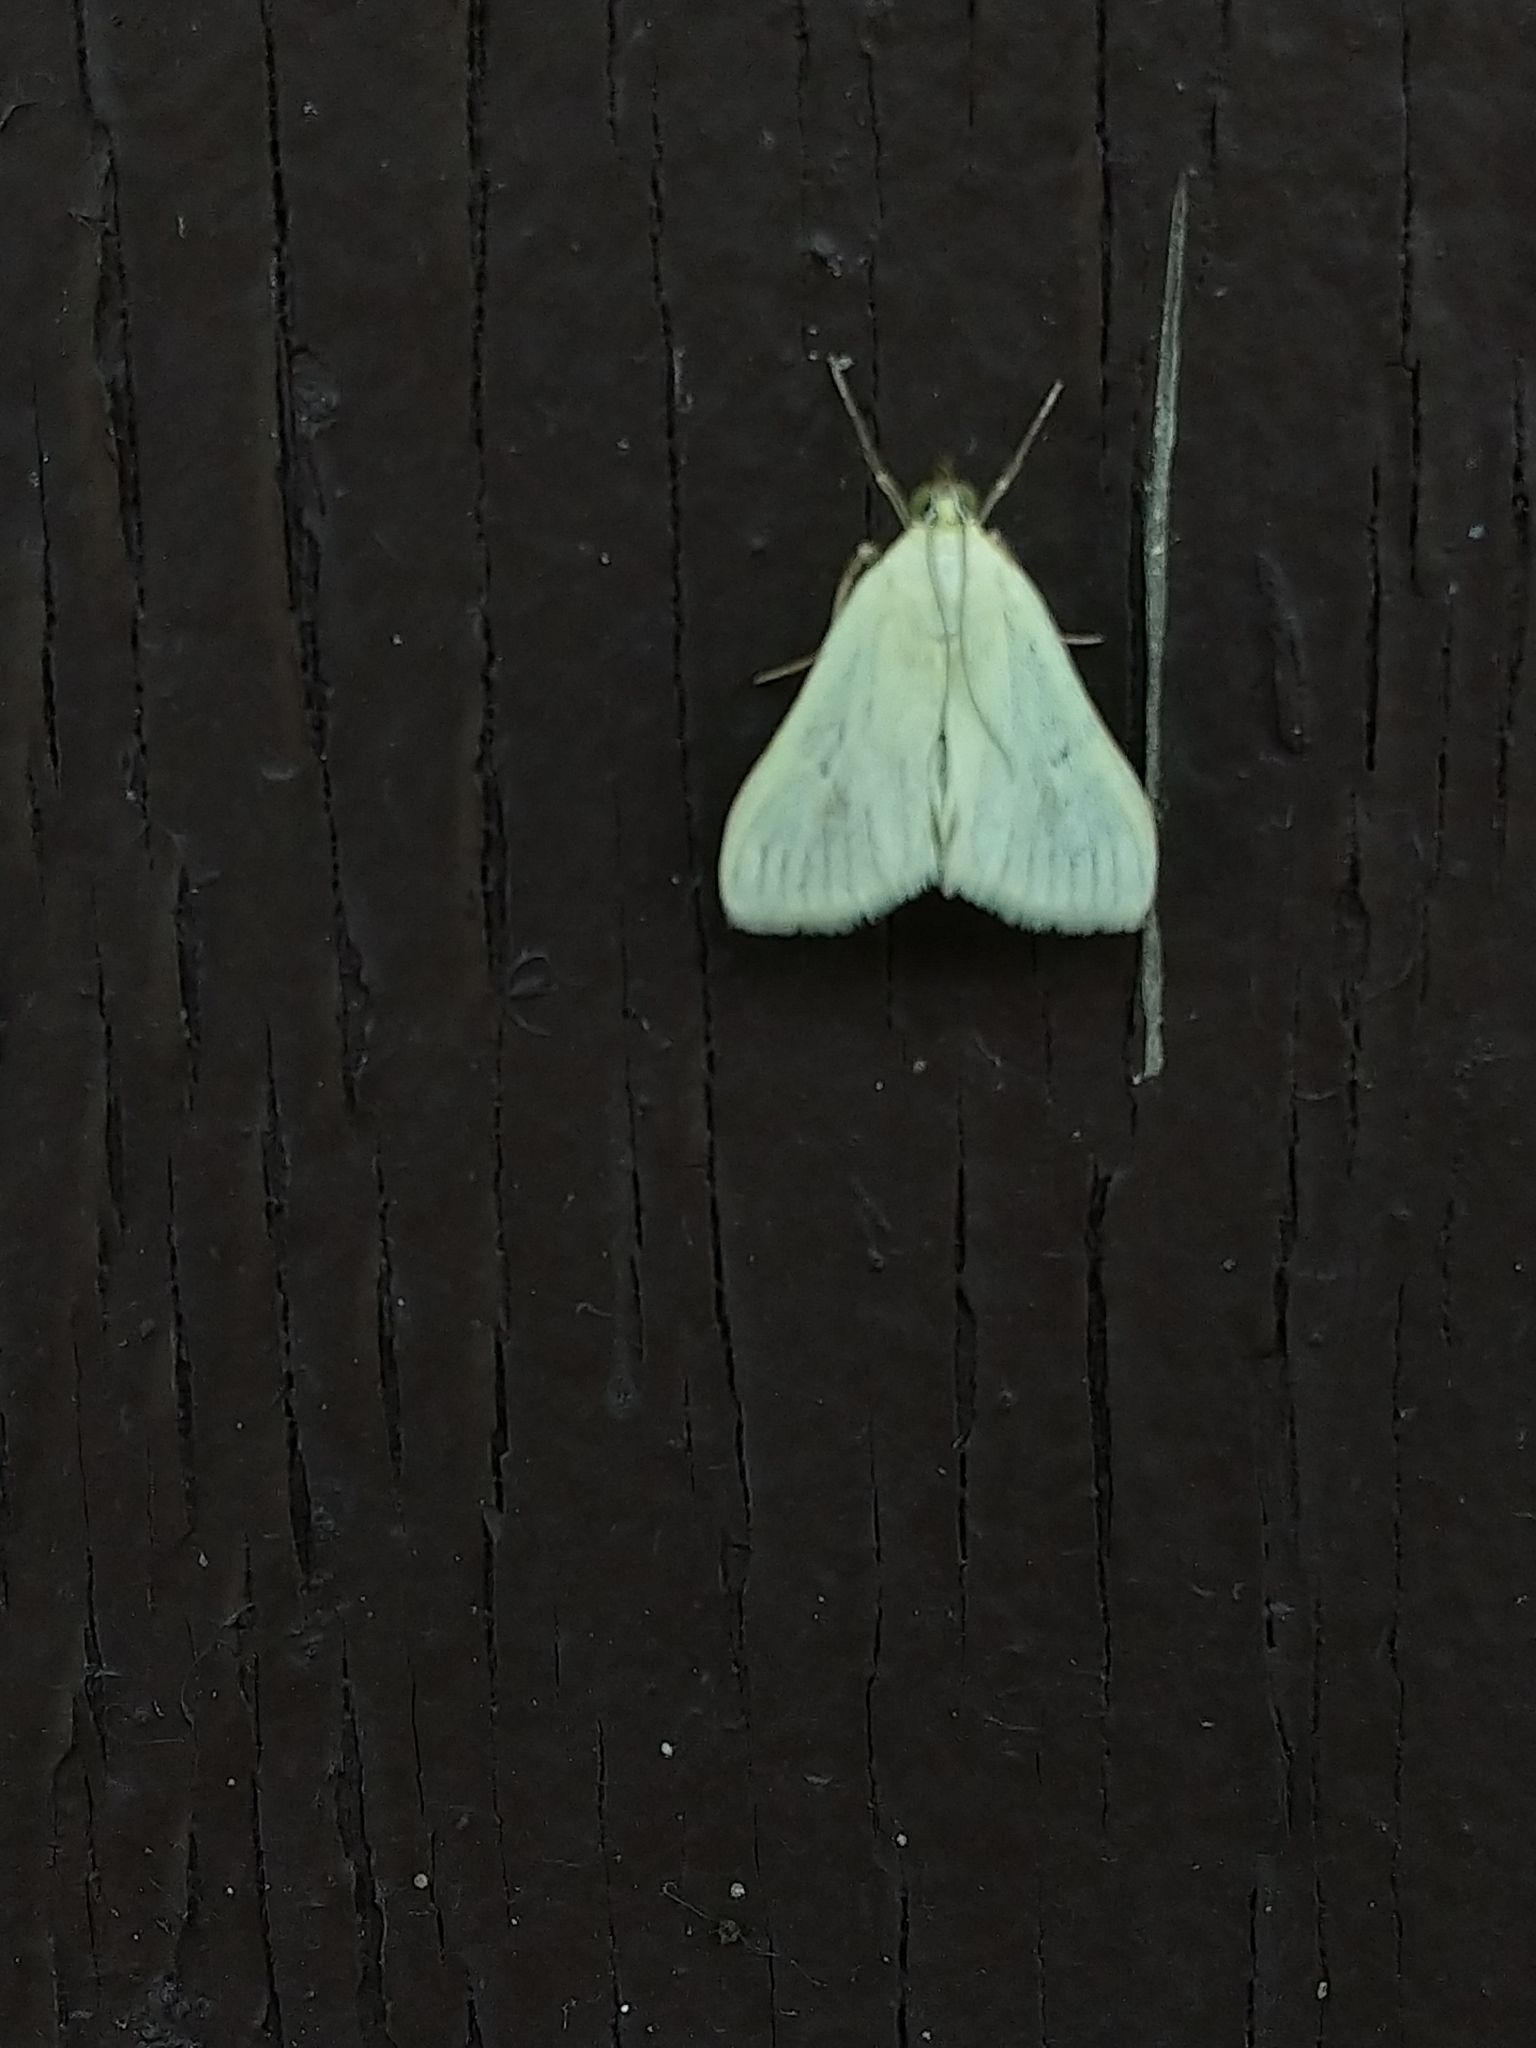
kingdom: Animalia
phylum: Arthropoda
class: Insecta
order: Lepidoptera
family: Crambidae
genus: Sitochroa
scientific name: Sitochroa palealis
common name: Greenish-yellow sitochroa moth
